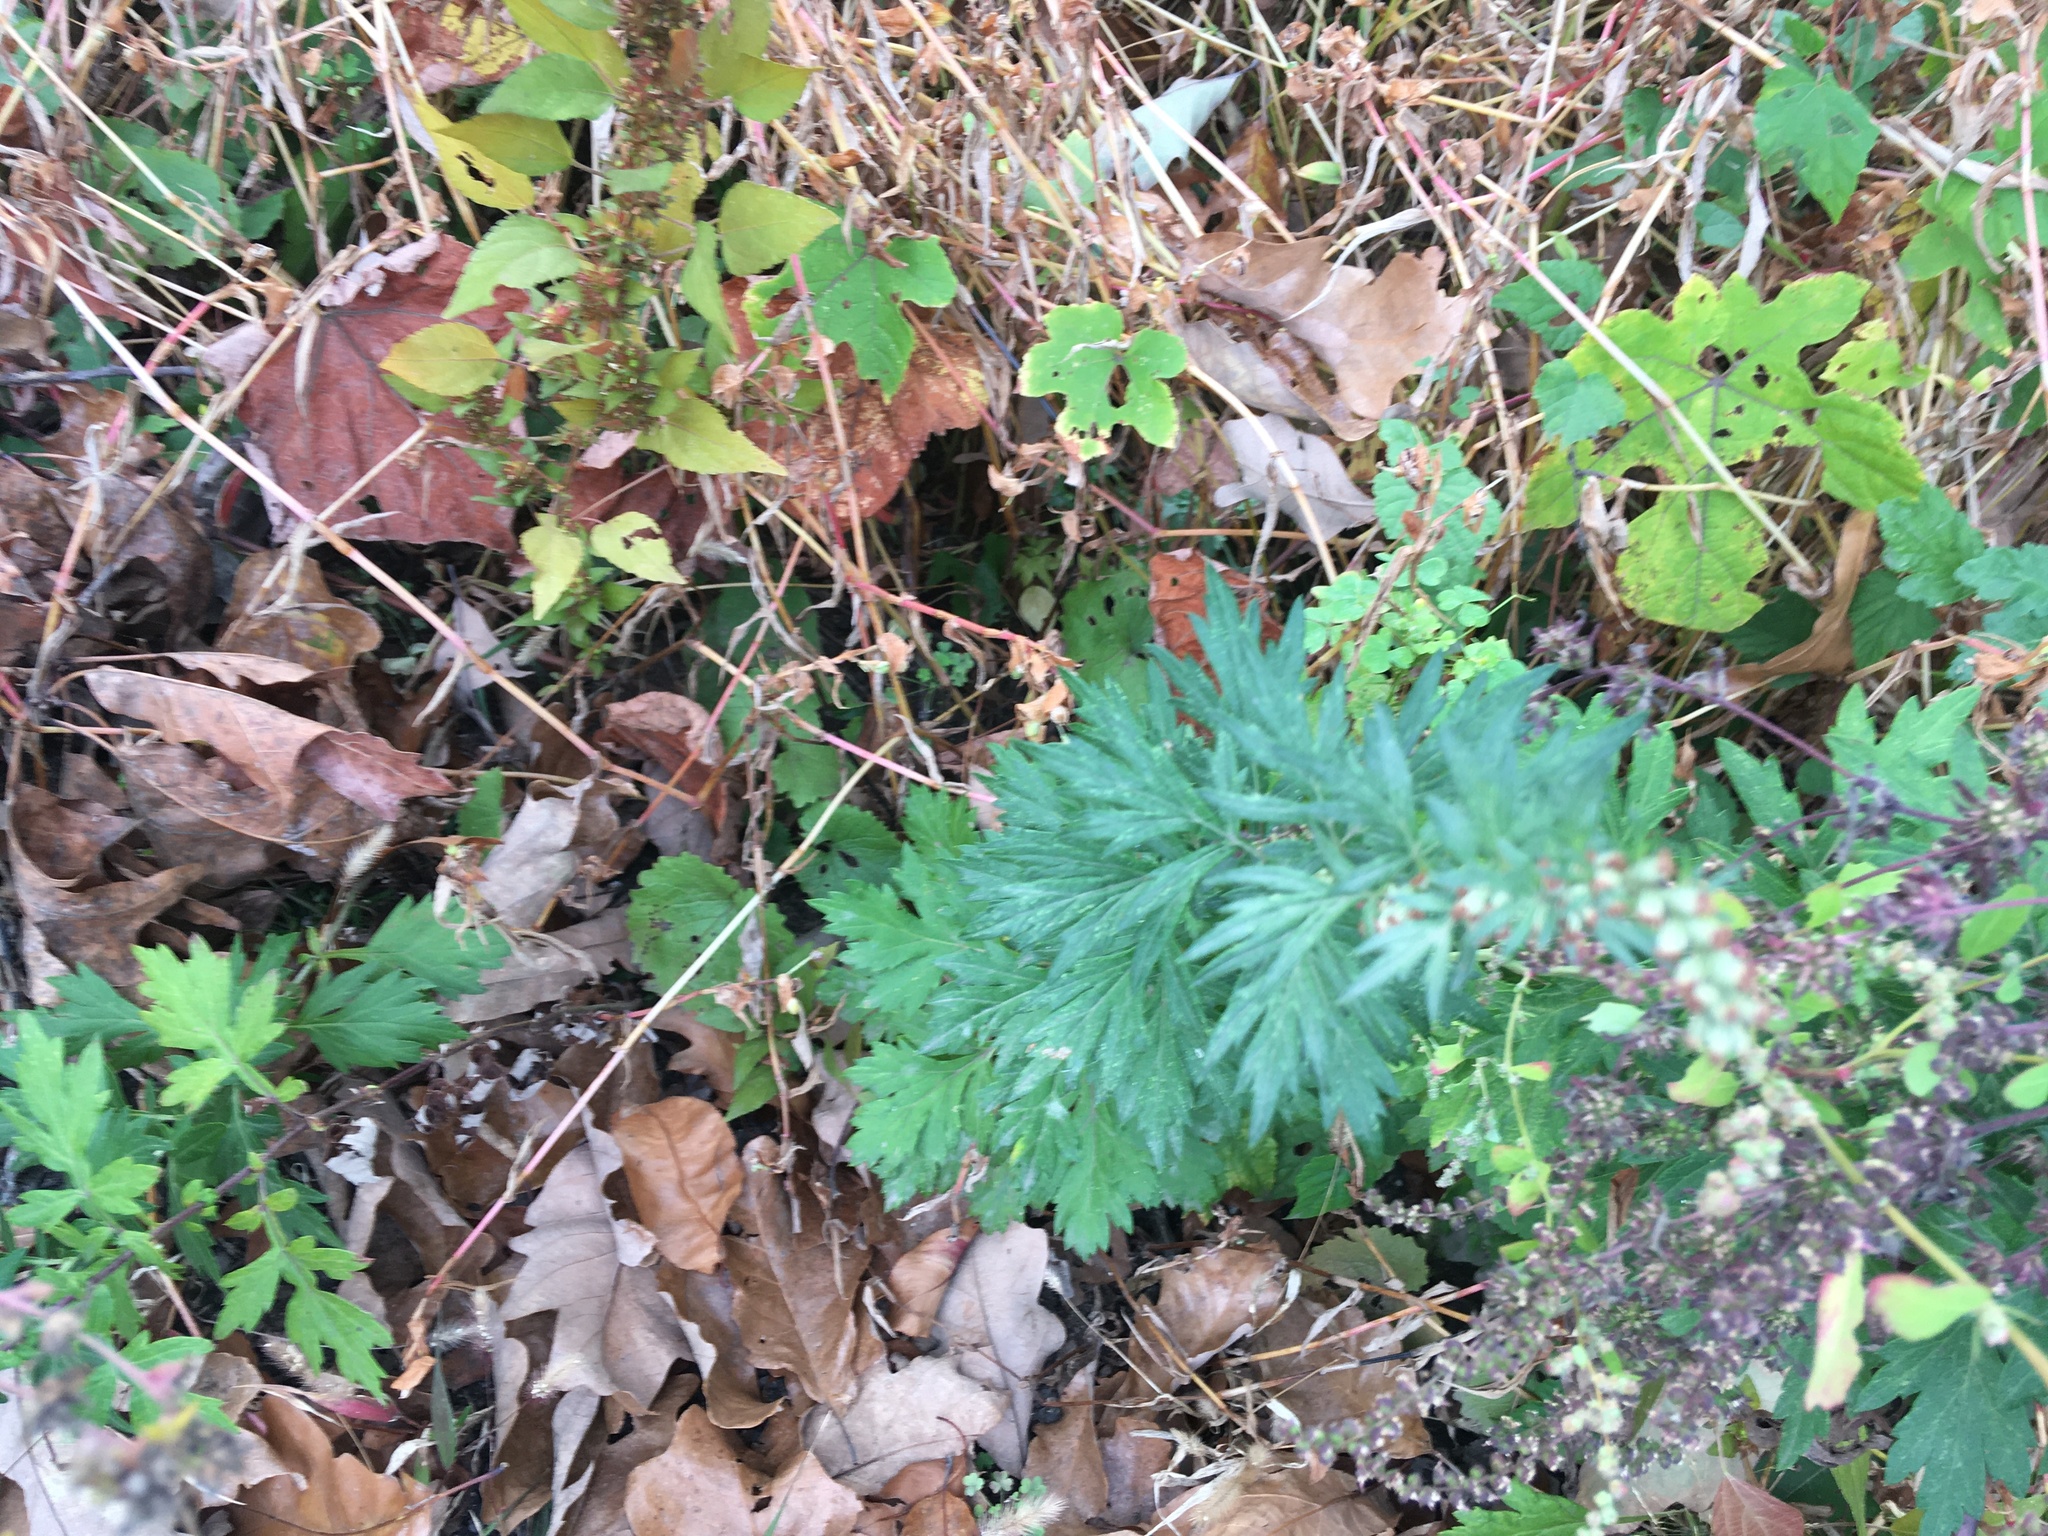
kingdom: Plantae
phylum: Tracheophyta
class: Magnoliopsida
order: Asterales
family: Asteraceae
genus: Artemisia
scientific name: Artemisia vulgaris
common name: Mugwort
